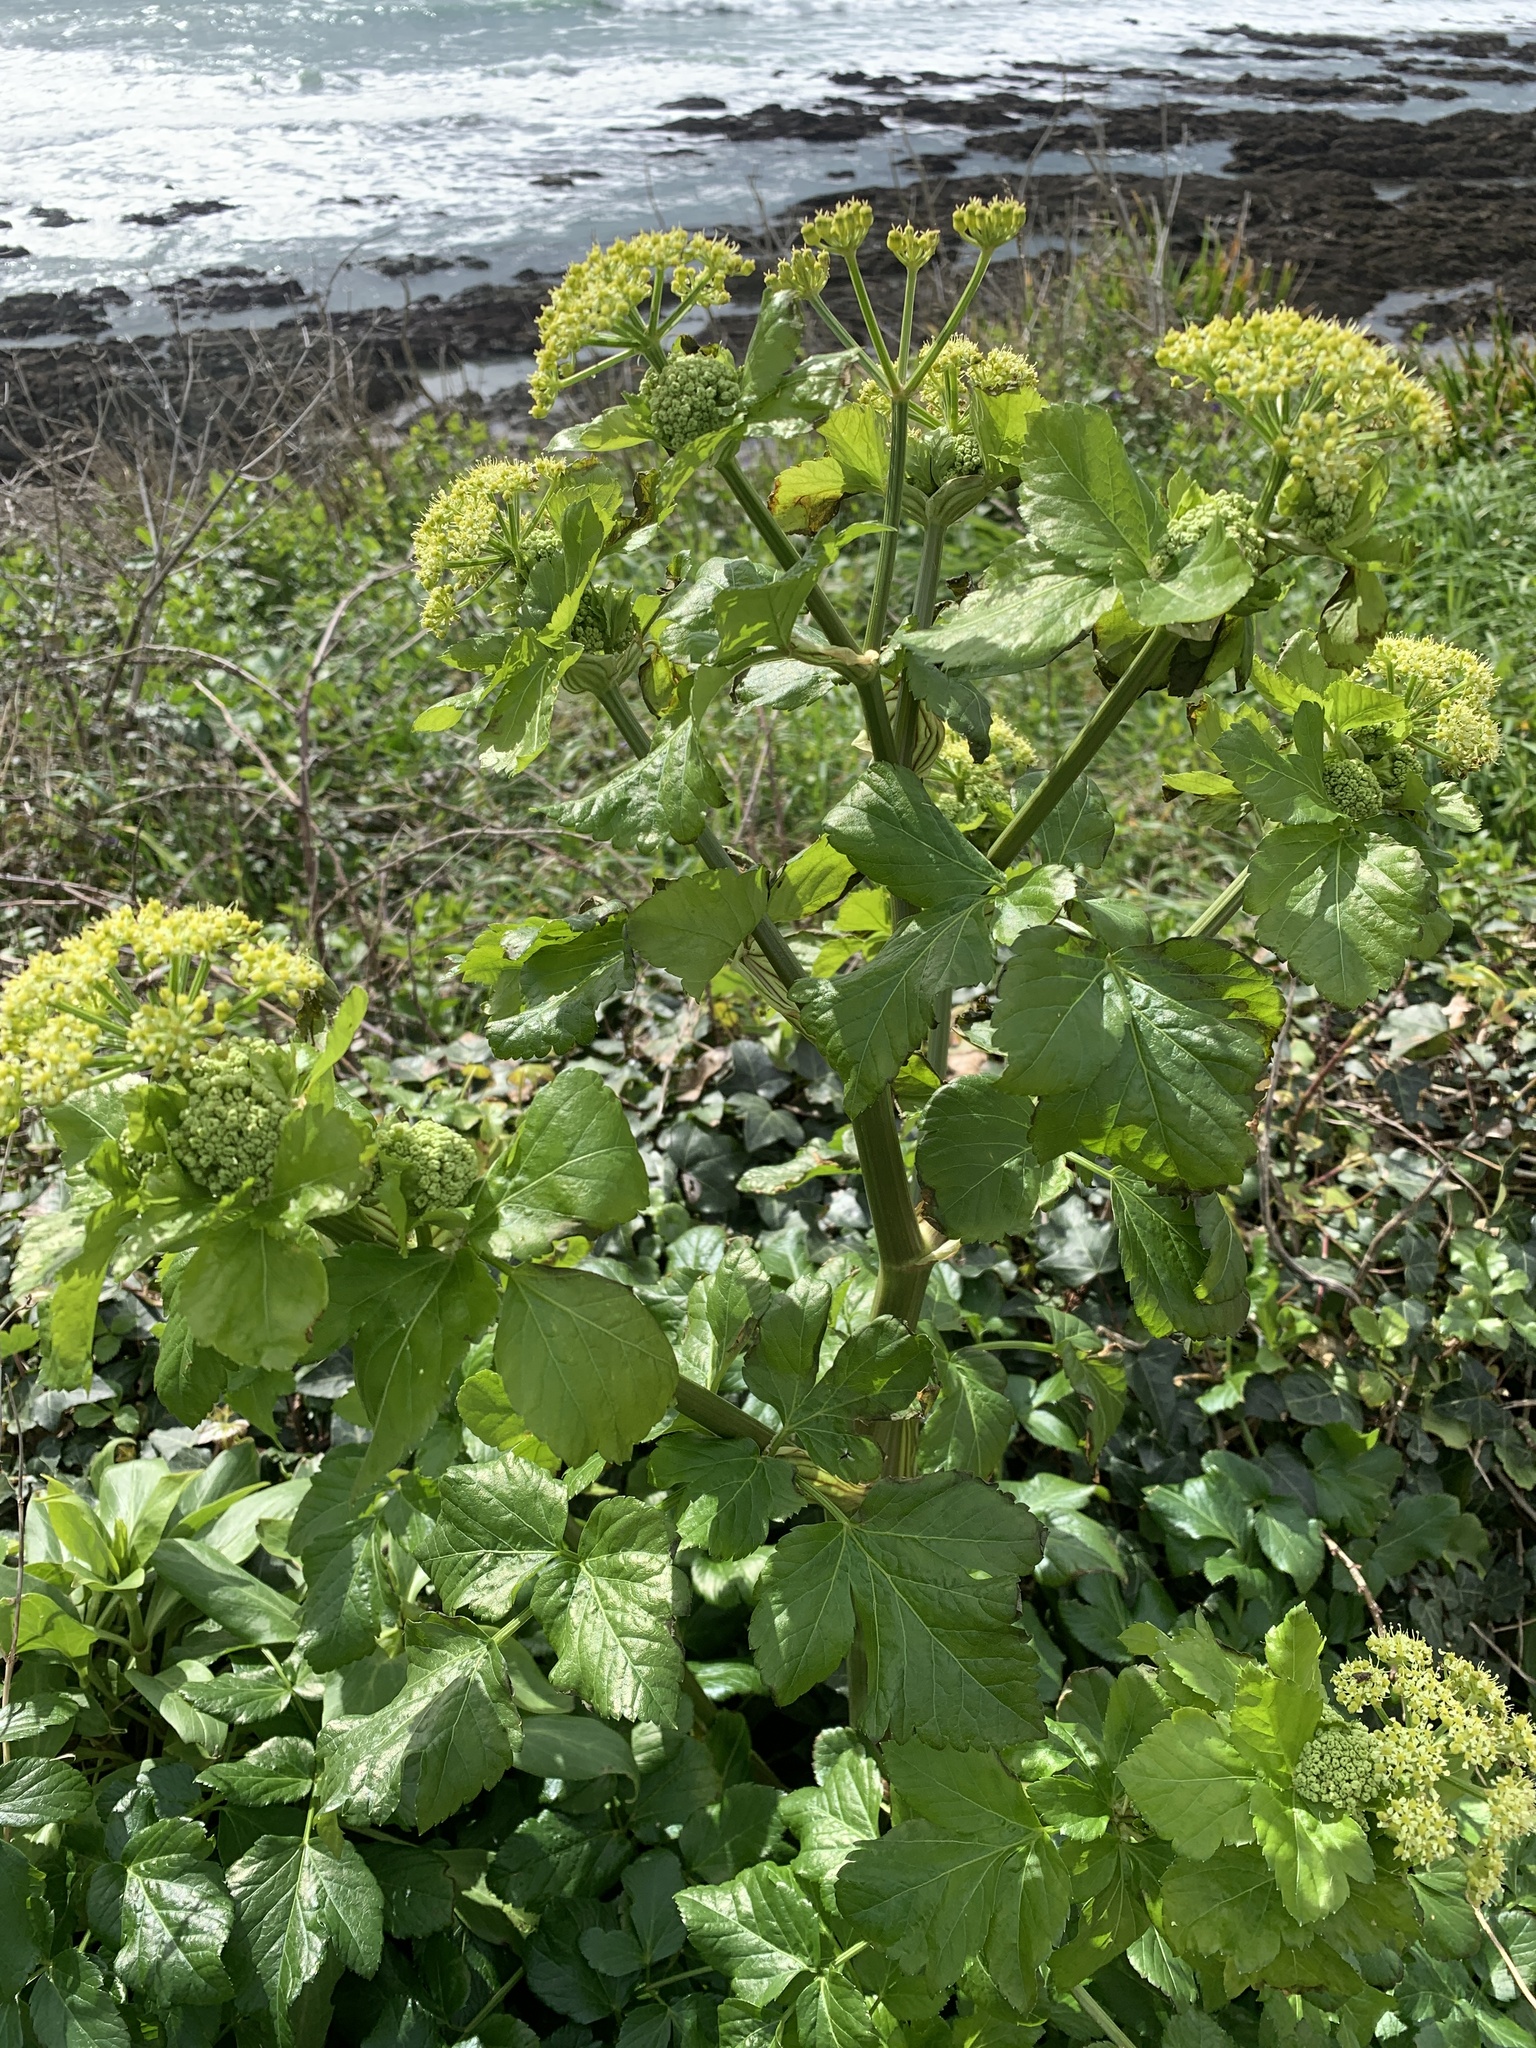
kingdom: Plantae
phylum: Tracheophyta
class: Magnoliopsida
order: Apiales
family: Apiaceae
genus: Smyrnium
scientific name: Smyrnium olusatrum
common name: Alexanders
